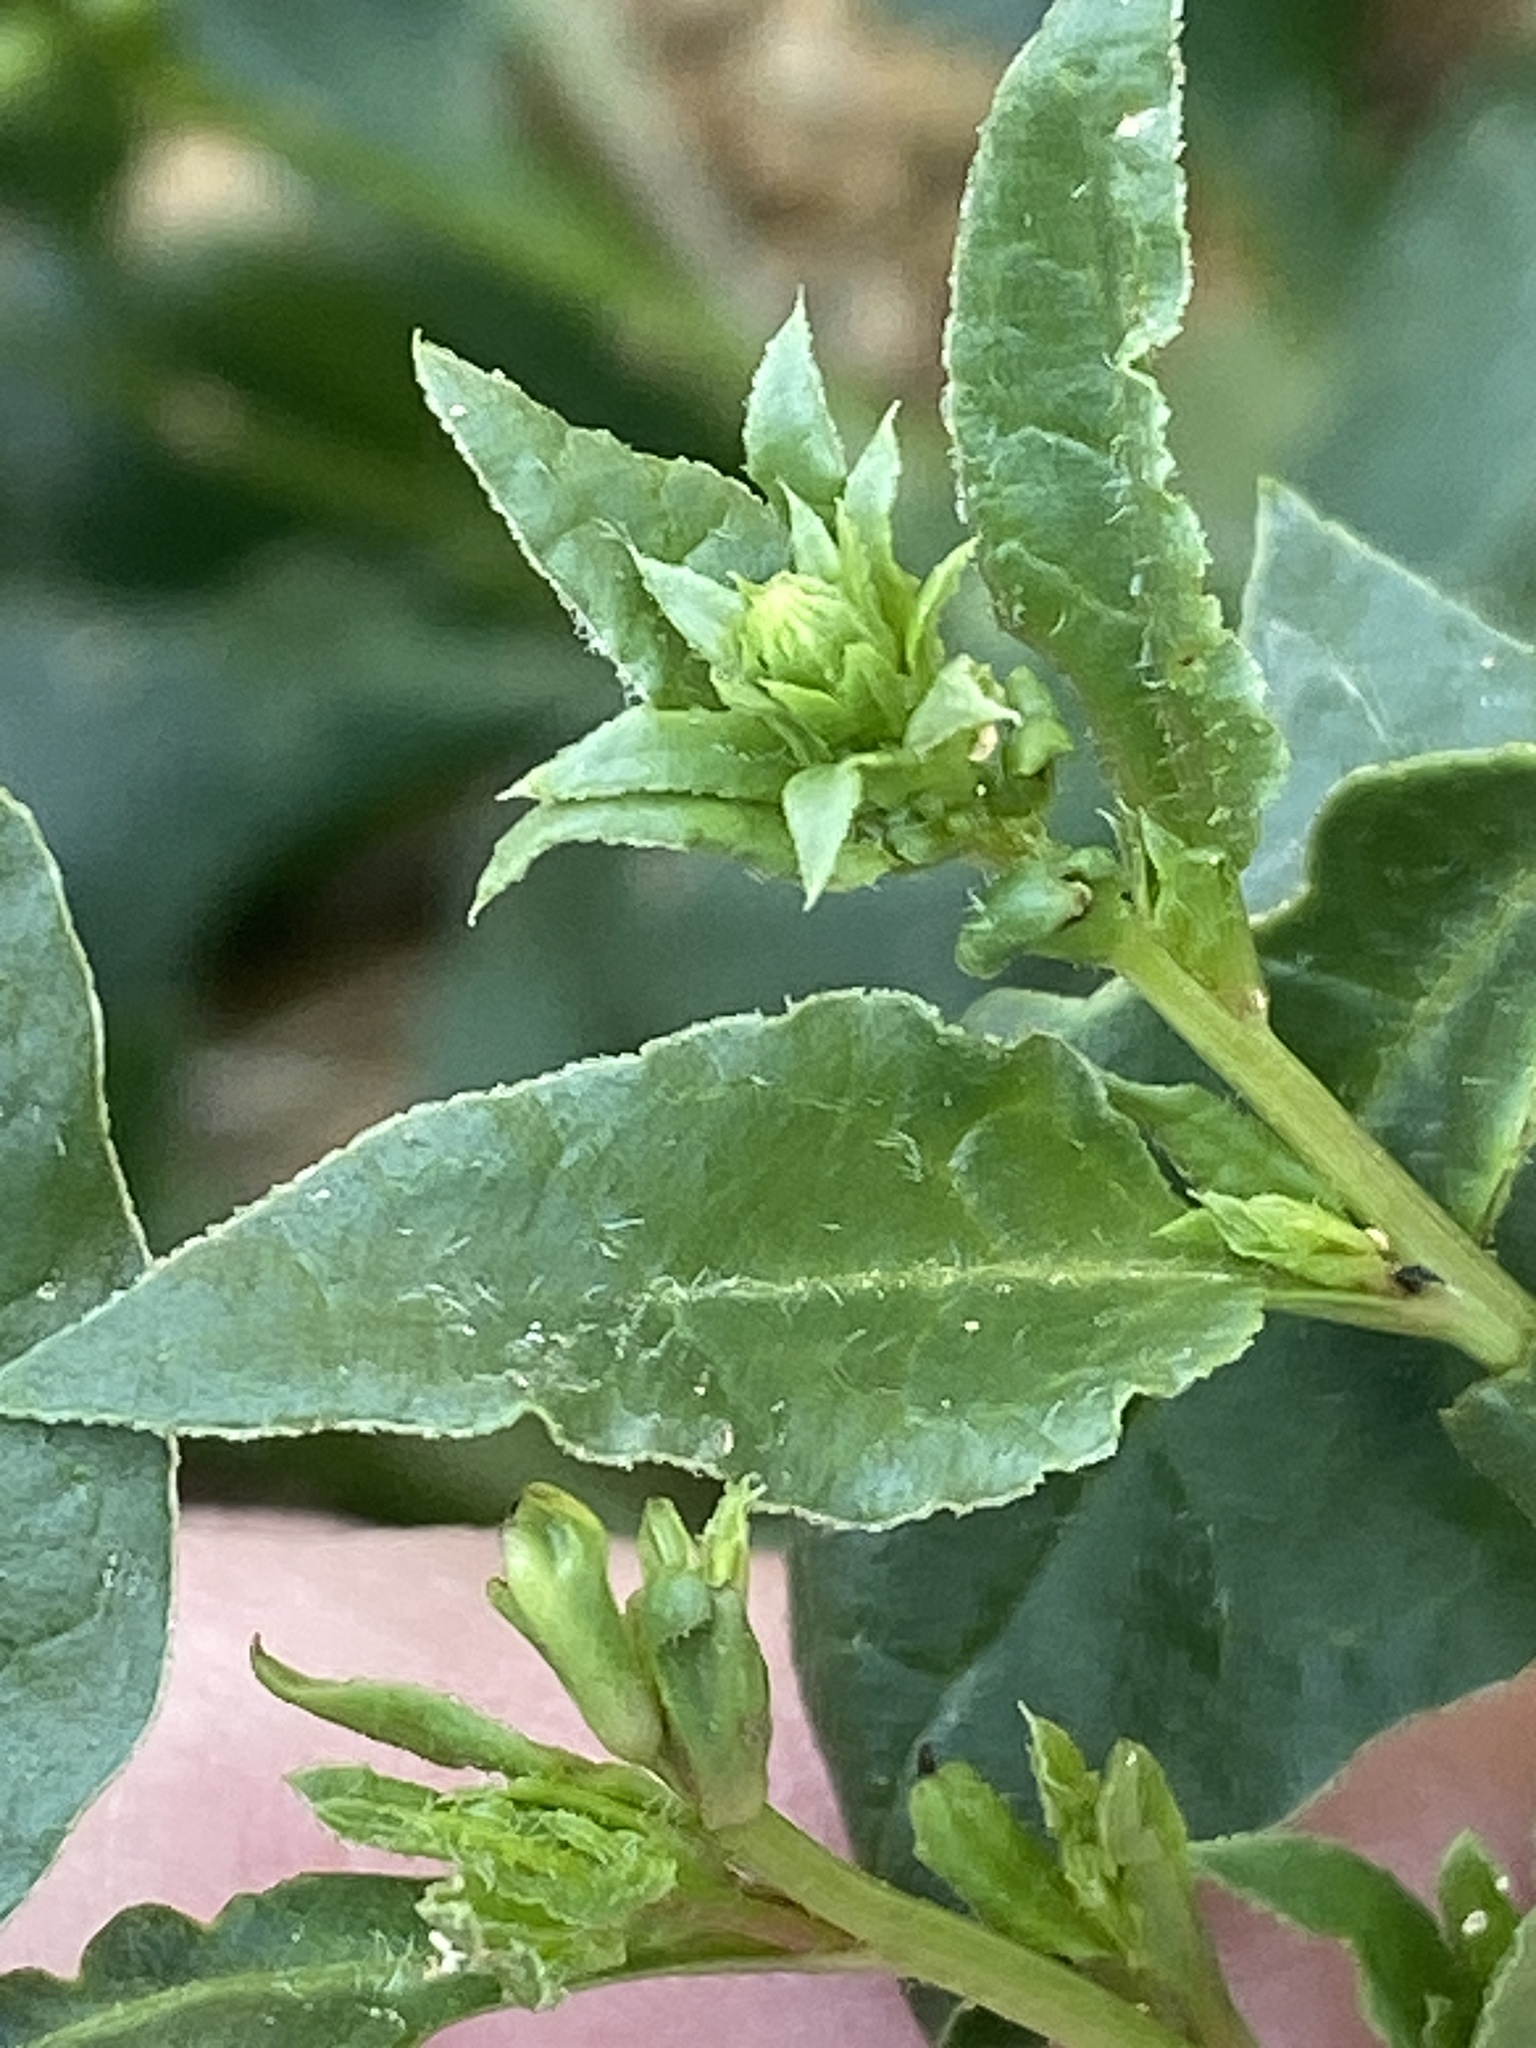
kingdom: Plantae
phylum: Tracheophyta
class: Magnoliopsida
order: Caryophyllales
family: Amaranthaceae
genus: Beta
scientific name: Beta vulgaris
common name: Beet
